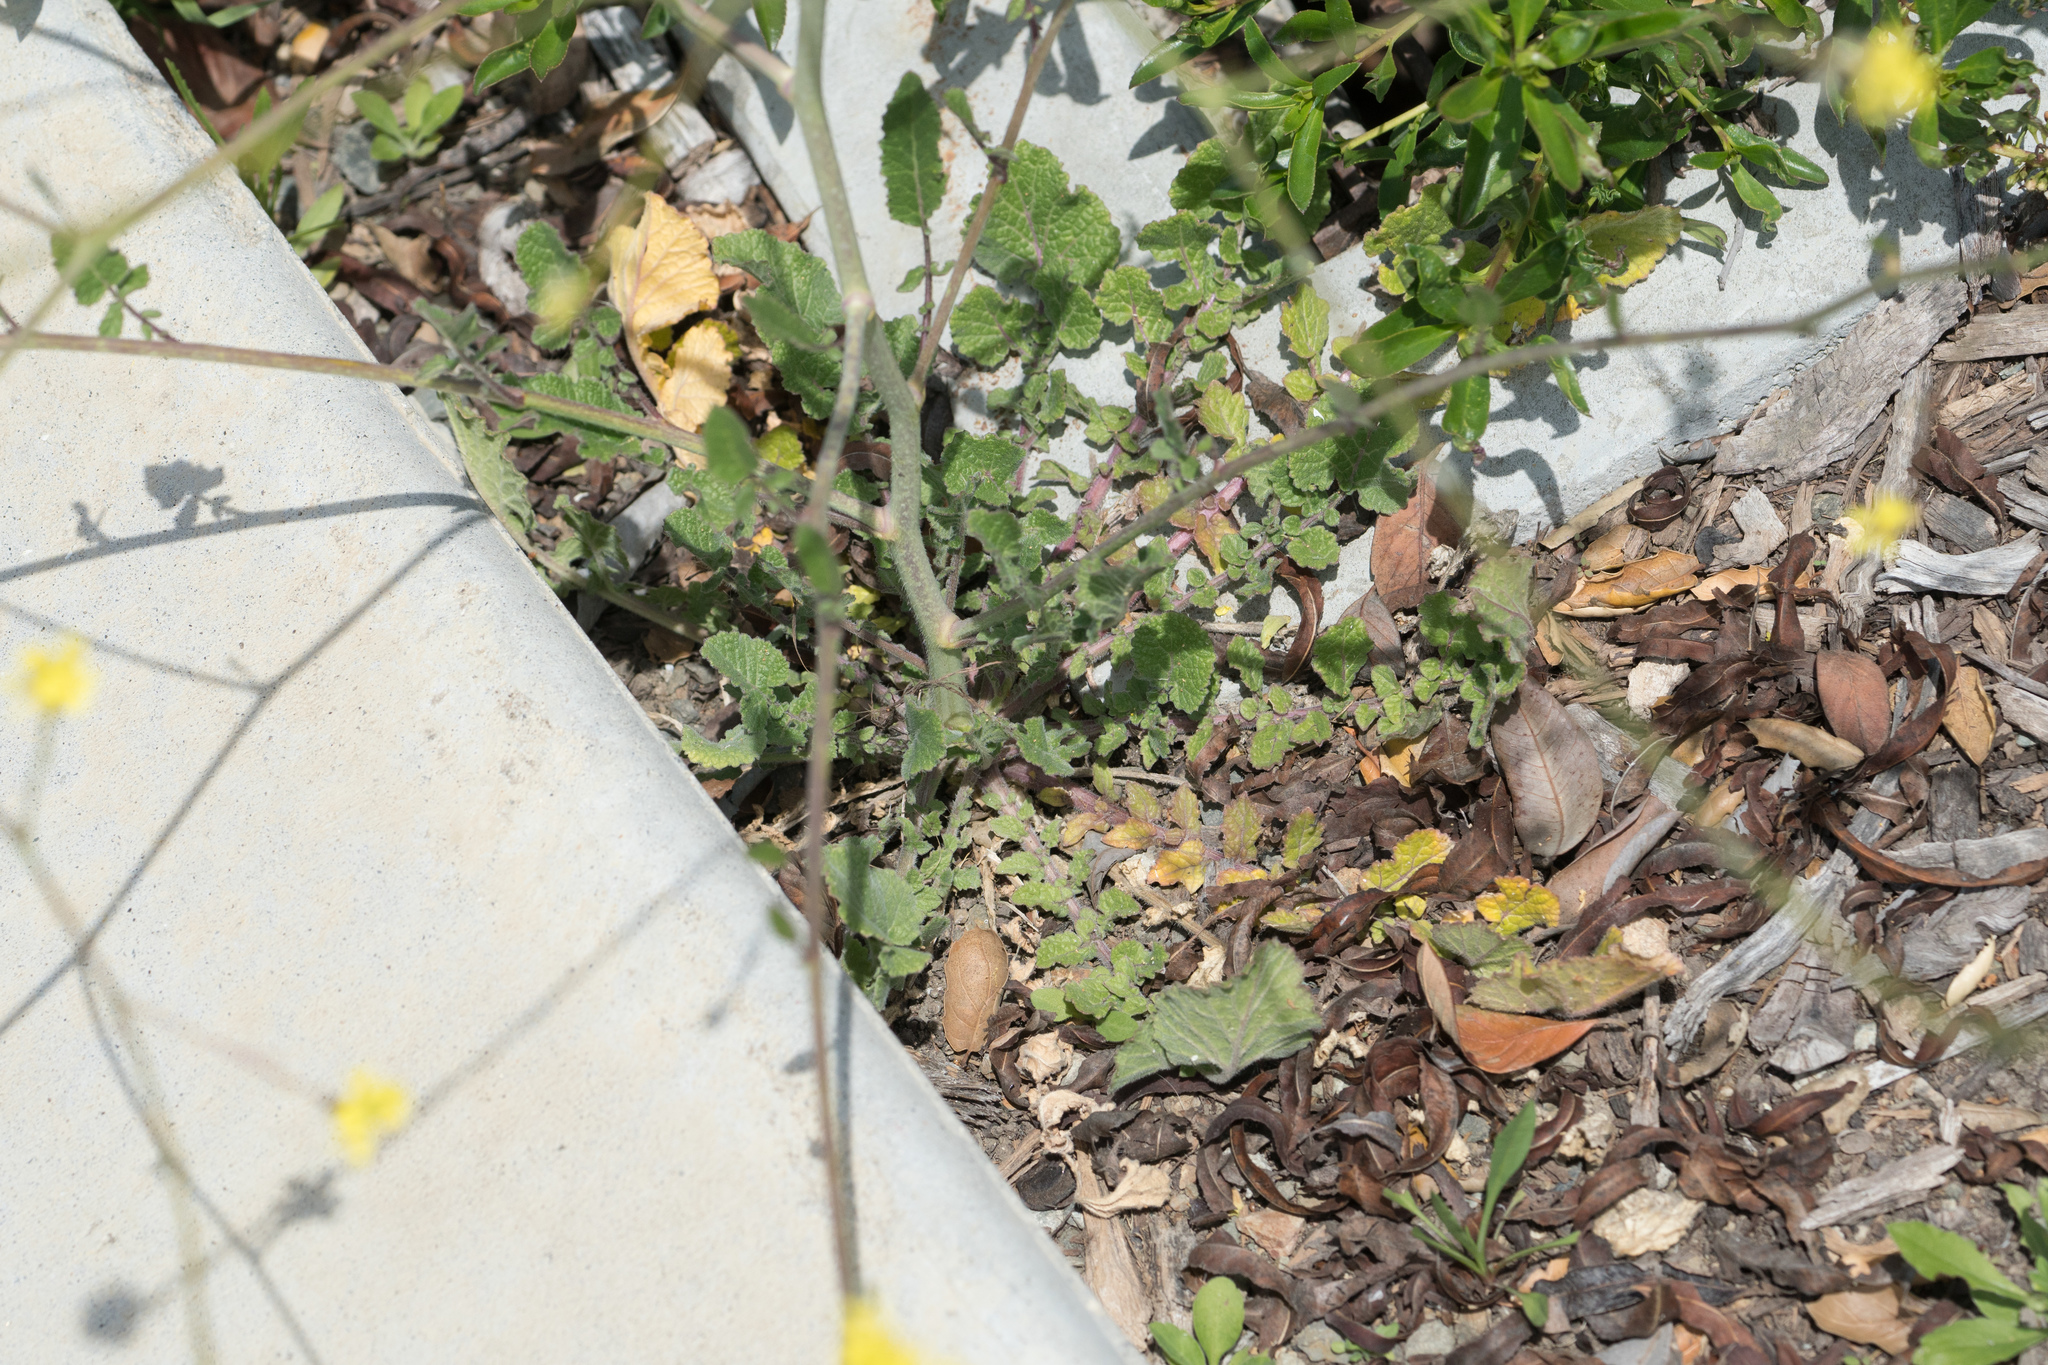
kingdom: Plantae
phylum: Tracheophyta
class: Magnoliopsida
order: Brassicales
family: Brassicaceae
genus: Hirschfeldia
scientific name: Hirschfeldia incana
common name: Hoary mustard
